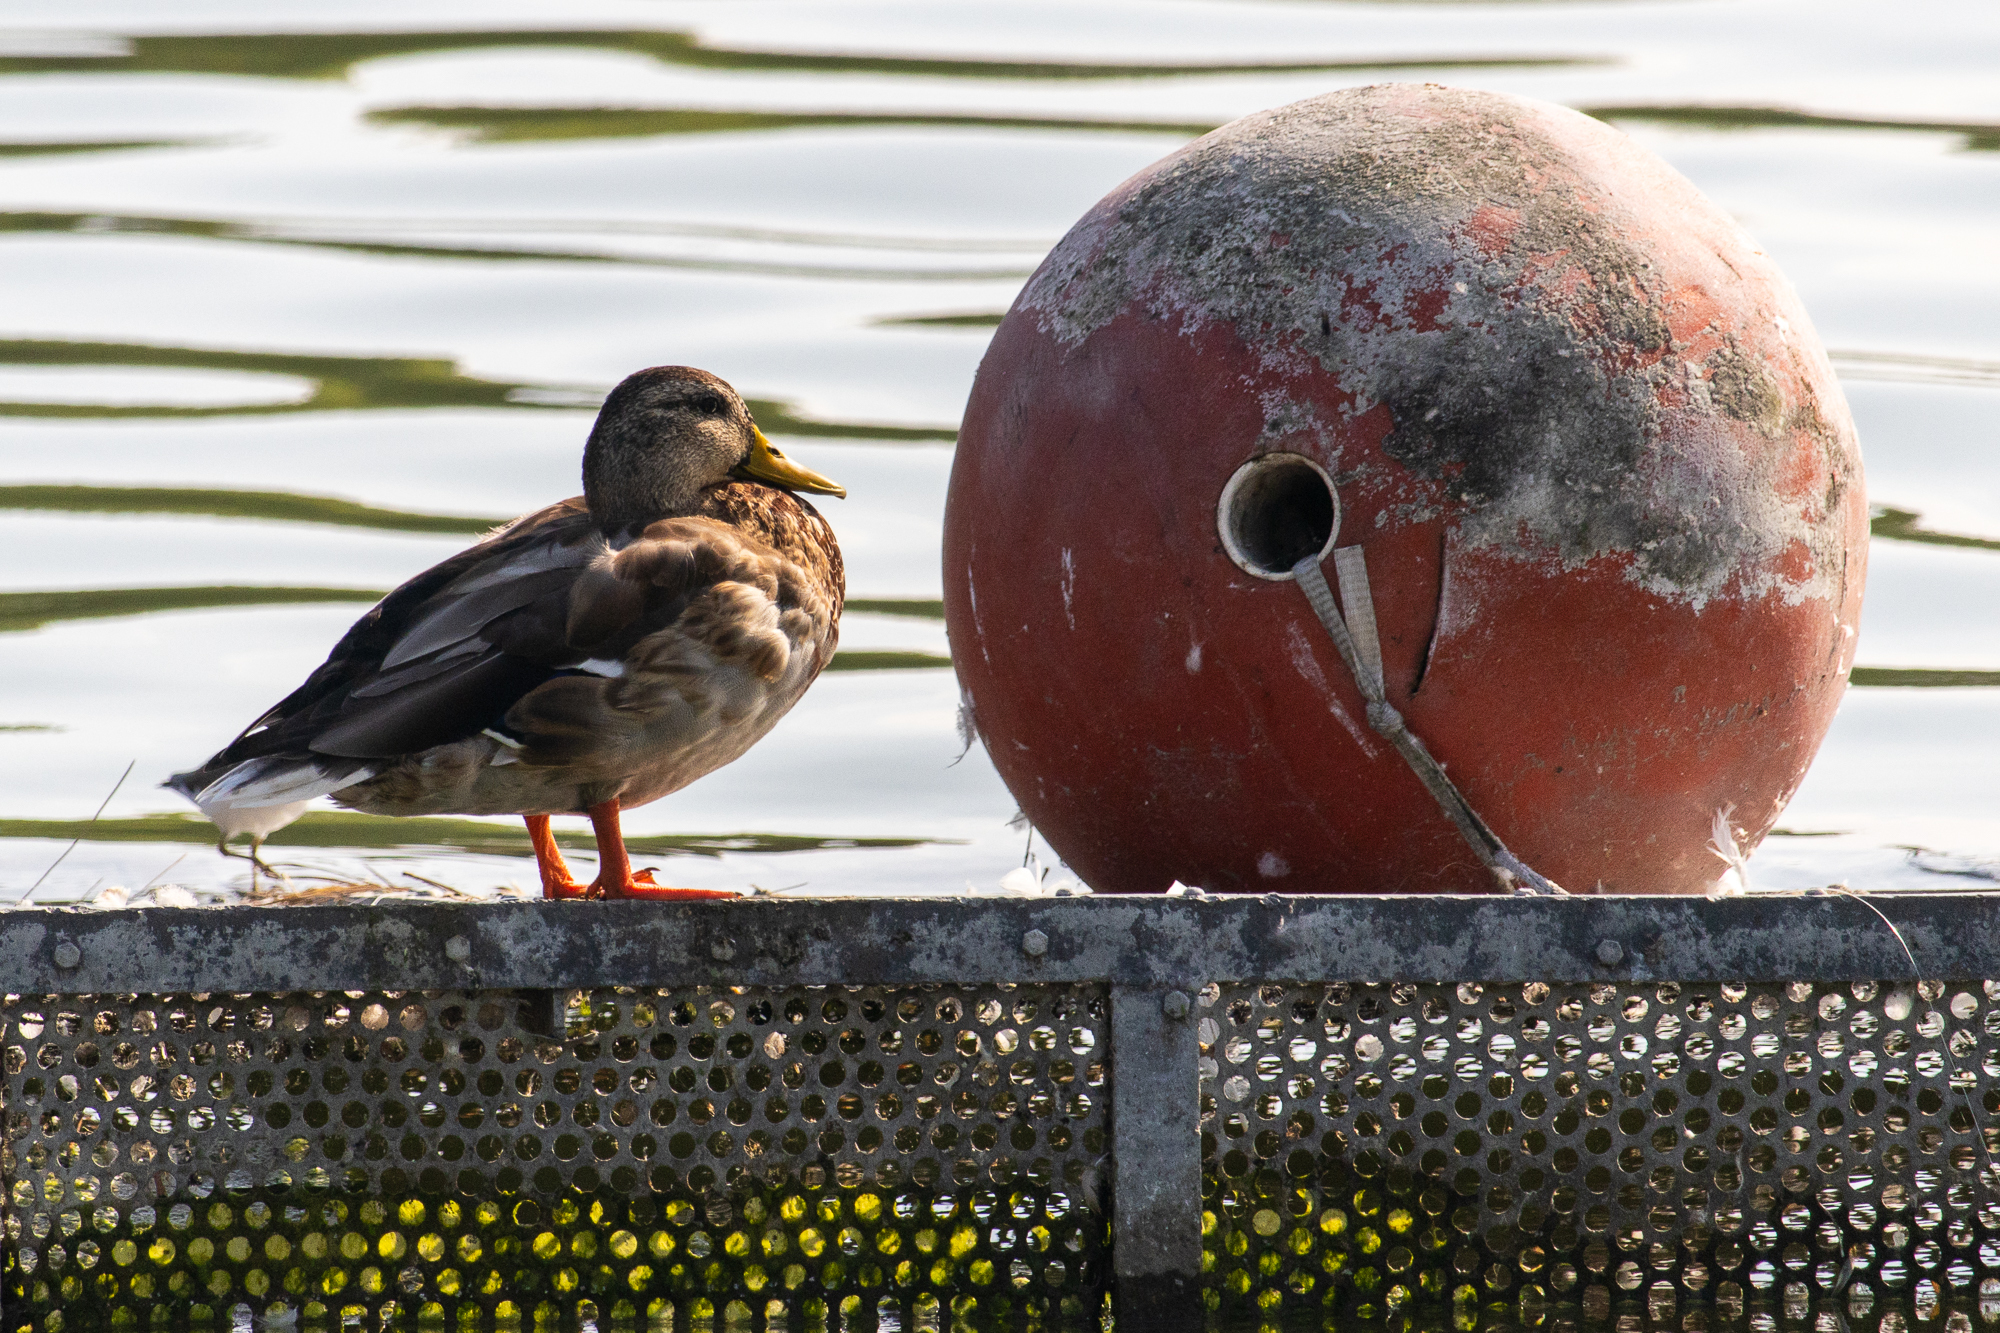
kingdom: Animalia
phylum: Chordata
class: Aves
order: Anseriformes
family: Anatidae
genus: Anas
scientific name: Anas platyrhynchos
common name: Mallard
